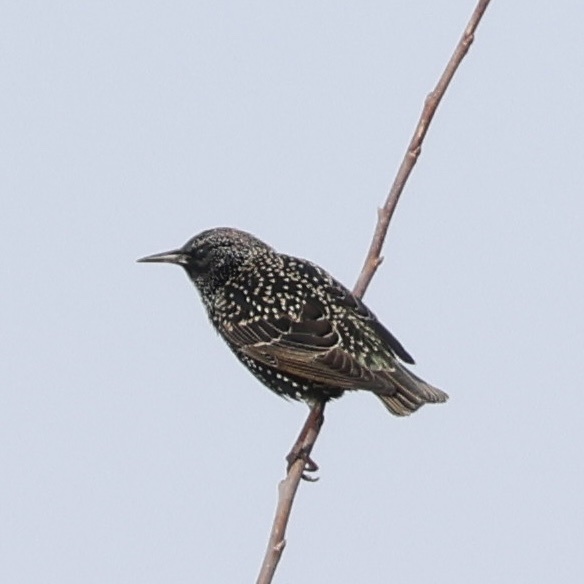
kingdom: Animalia
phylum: Chordata
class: Aves
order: Passeriformes
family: Sturnidae
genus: Sturnus
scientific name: Sturnus vulgaris
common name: Common starling
